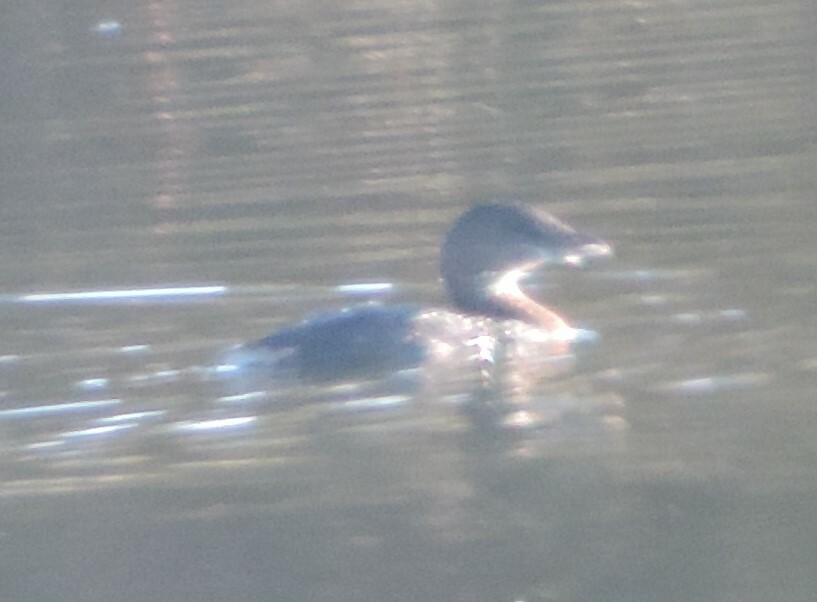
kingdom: Animalia
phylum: Chordata
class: Aves
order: Podicipediformes
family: Podicipedidae
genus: Podilymbus
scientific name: Podilymbus podiceps
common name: Pied-billed grebe
